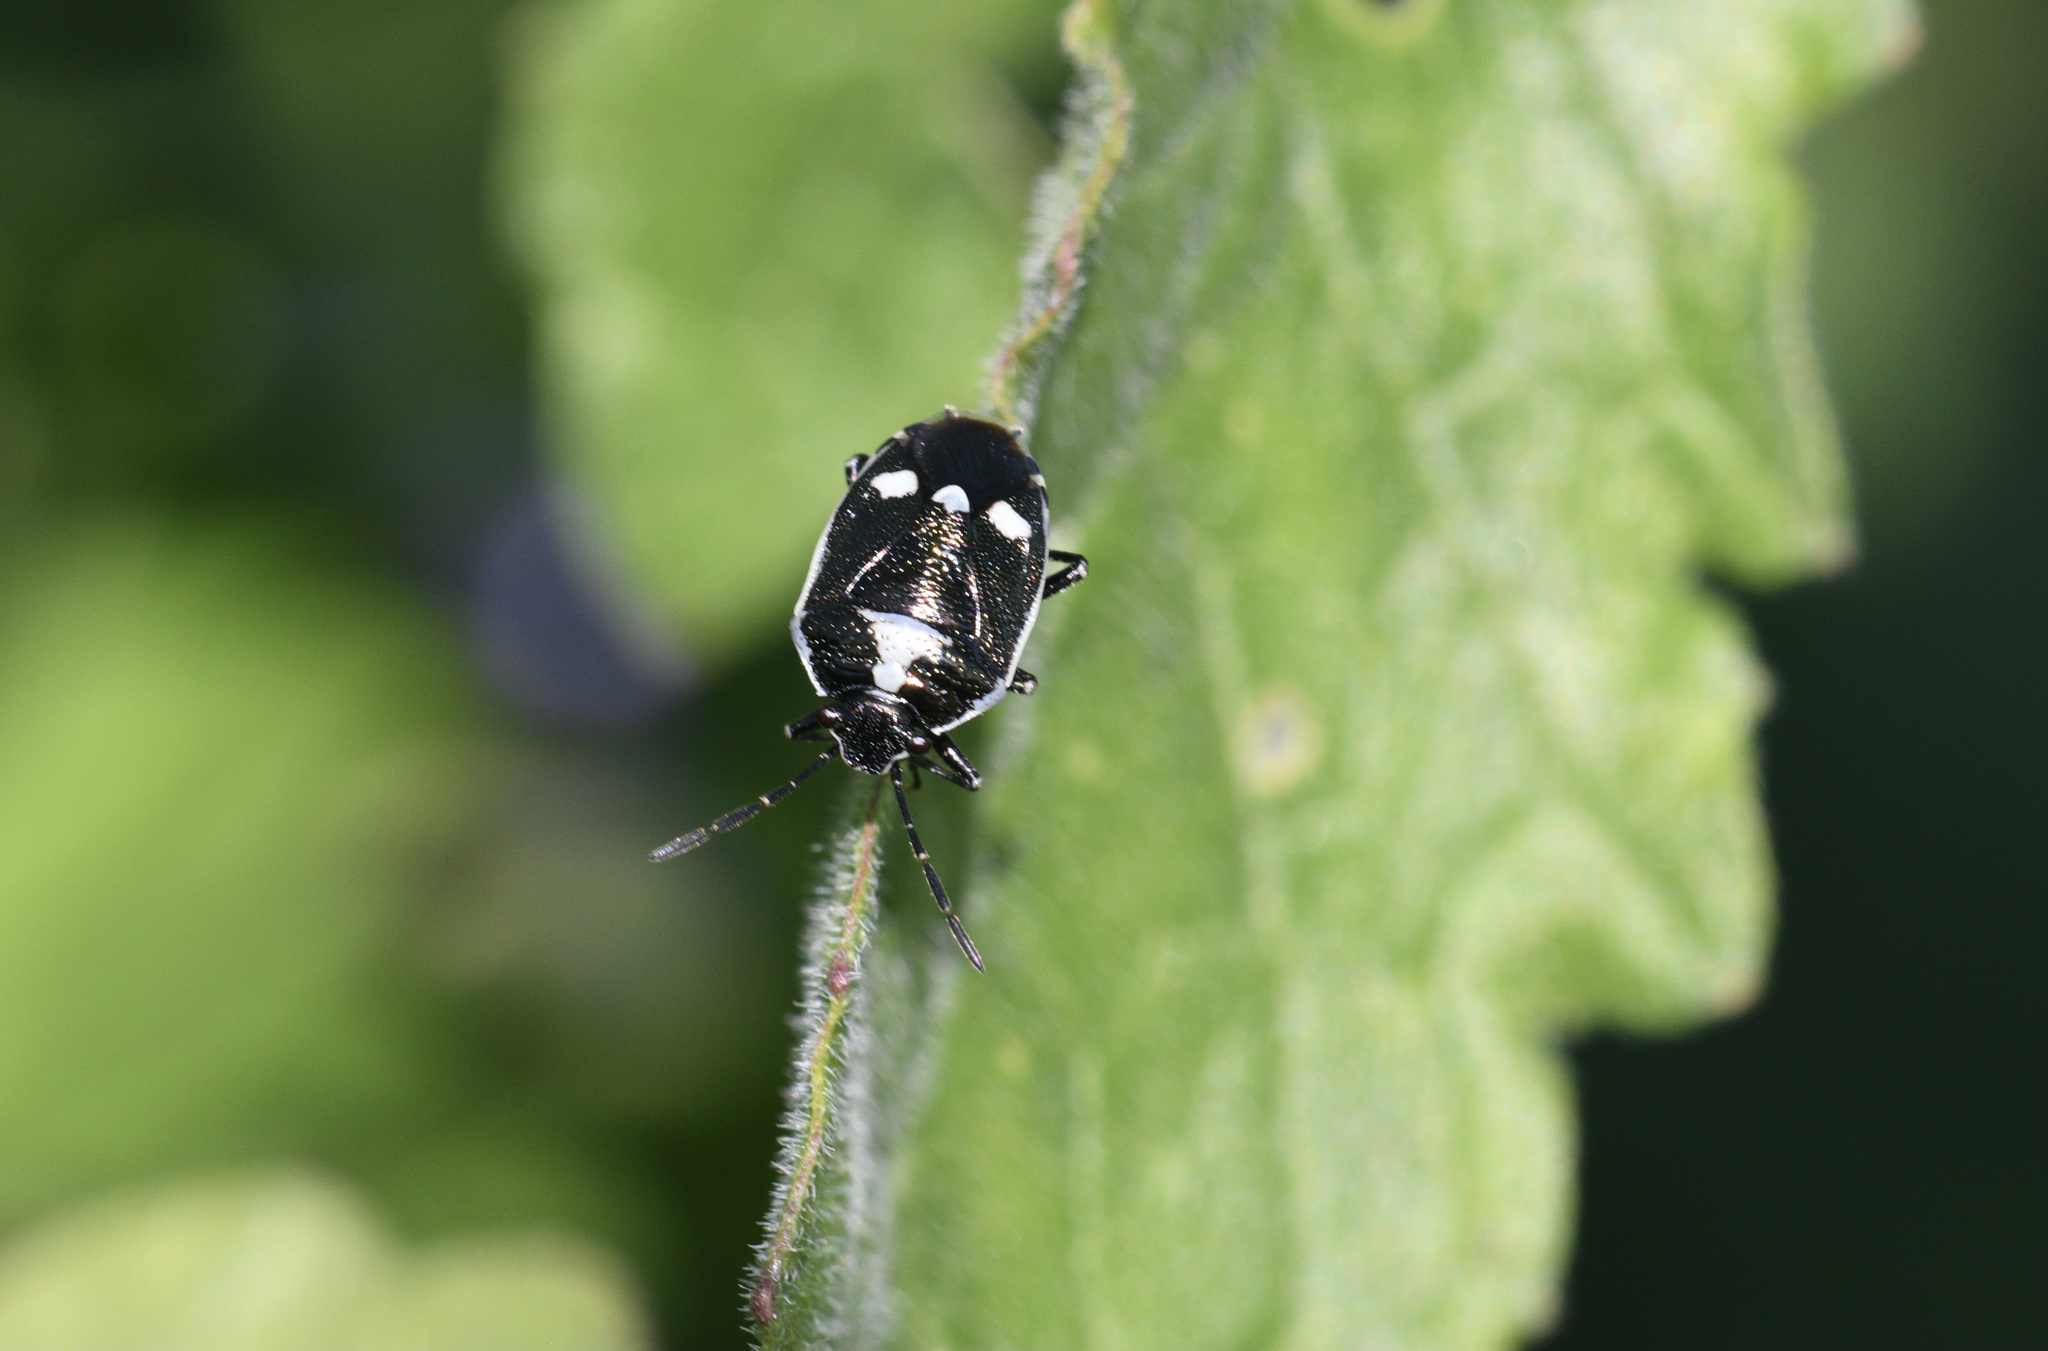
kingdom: Animalia
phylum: Arthropoda
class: Insecta
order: Hemiptera
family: Pentatomidae
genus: Eurydema
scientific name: Eurydema oleracea
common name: Cabbage bug
